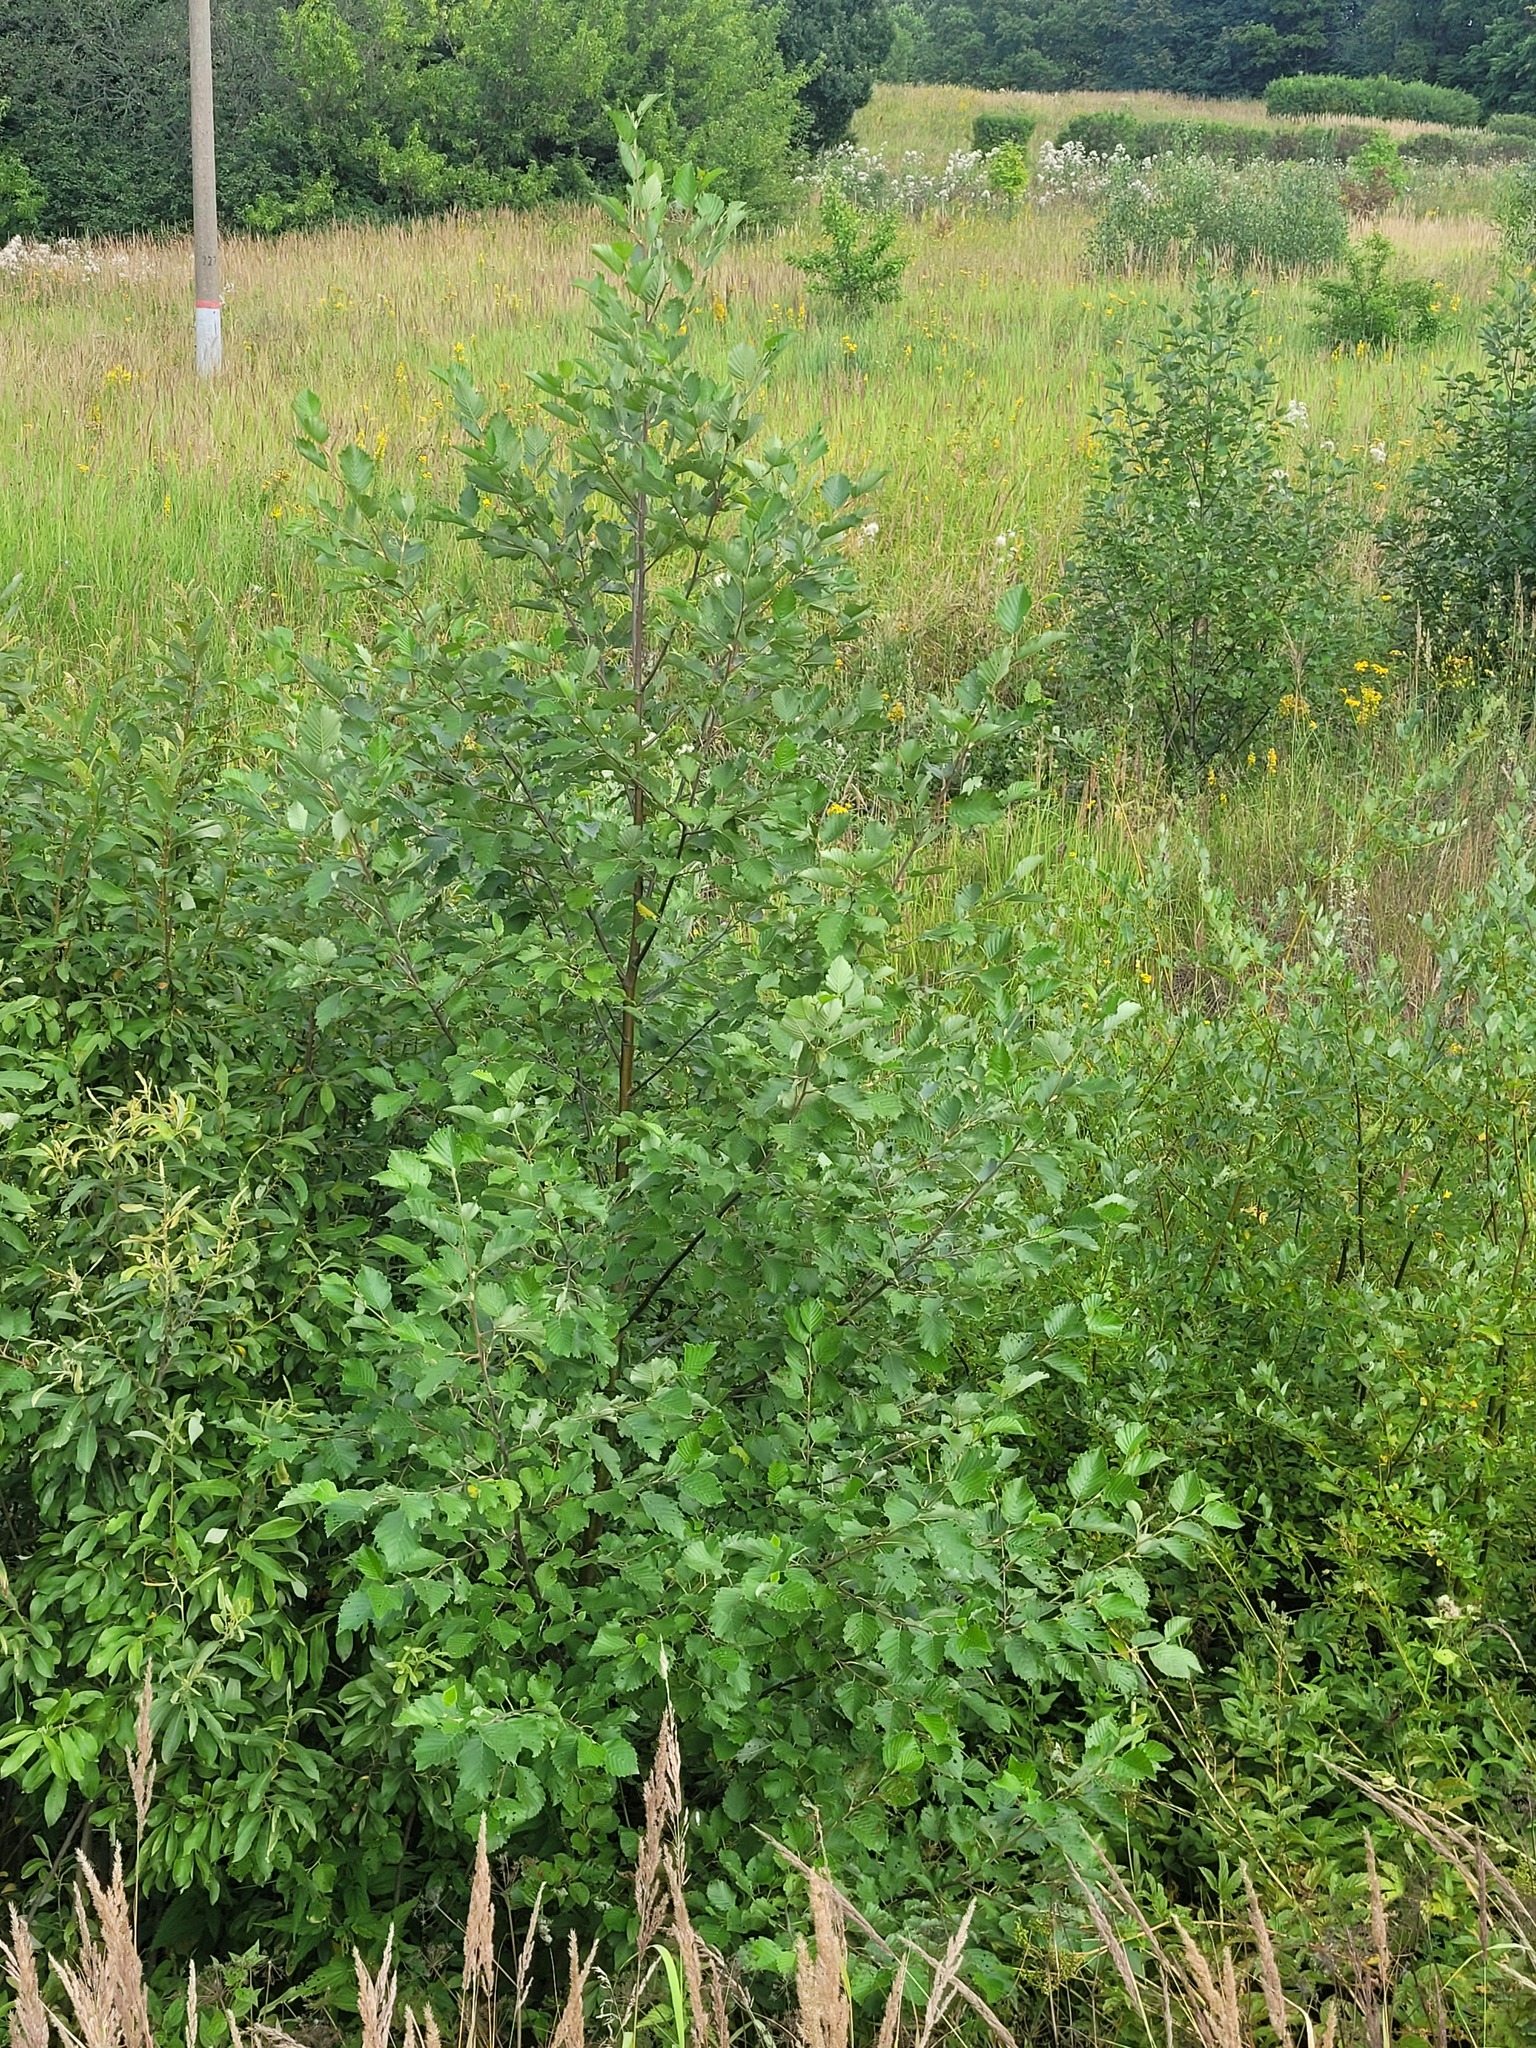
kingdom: Plantae
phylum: Tracheophyta
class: Magnoliopsida
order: Fagales
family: Betulaceae
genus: Alnus
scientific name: Alnus incana
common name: Grey alder
